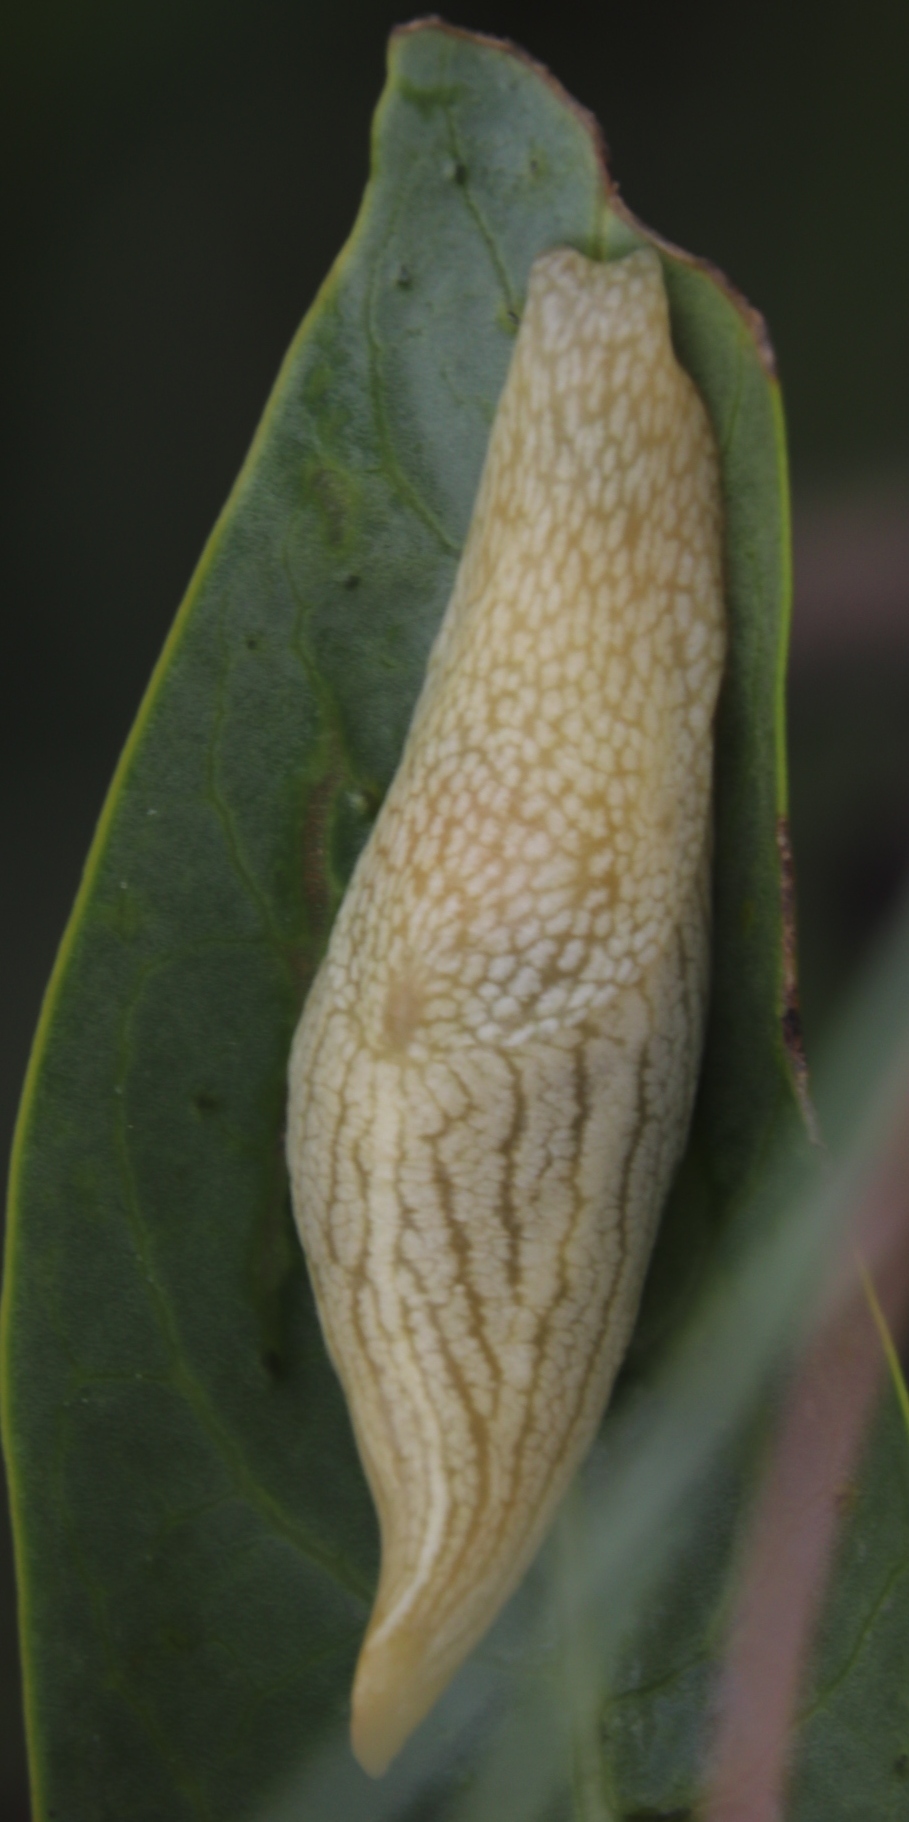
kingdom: Animalia
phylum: Mollusca
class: Gastropoda
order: Stylommatophora
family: Urocyclidae
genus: Elisolimax
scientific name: Elisolimax flavescens
